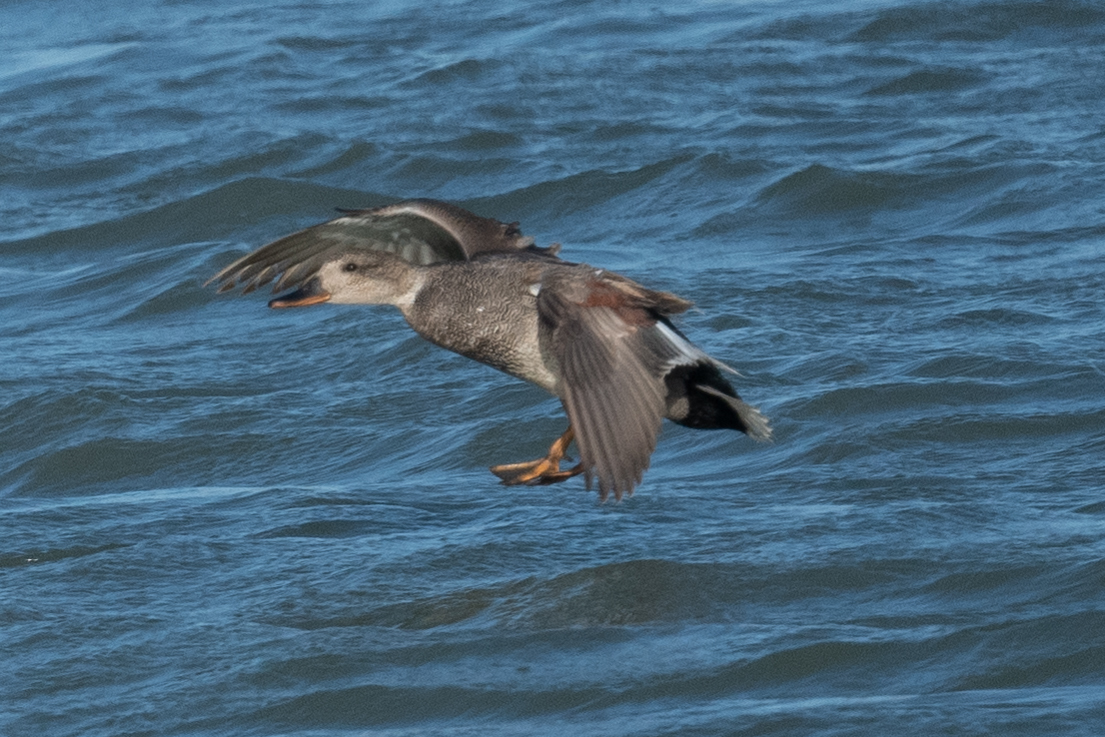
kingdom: Animalia
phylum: Chordata
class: Aves
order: Anseriformes
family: Anatidae
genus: Mareca
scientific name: Mareca strepera
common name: Gadwall
